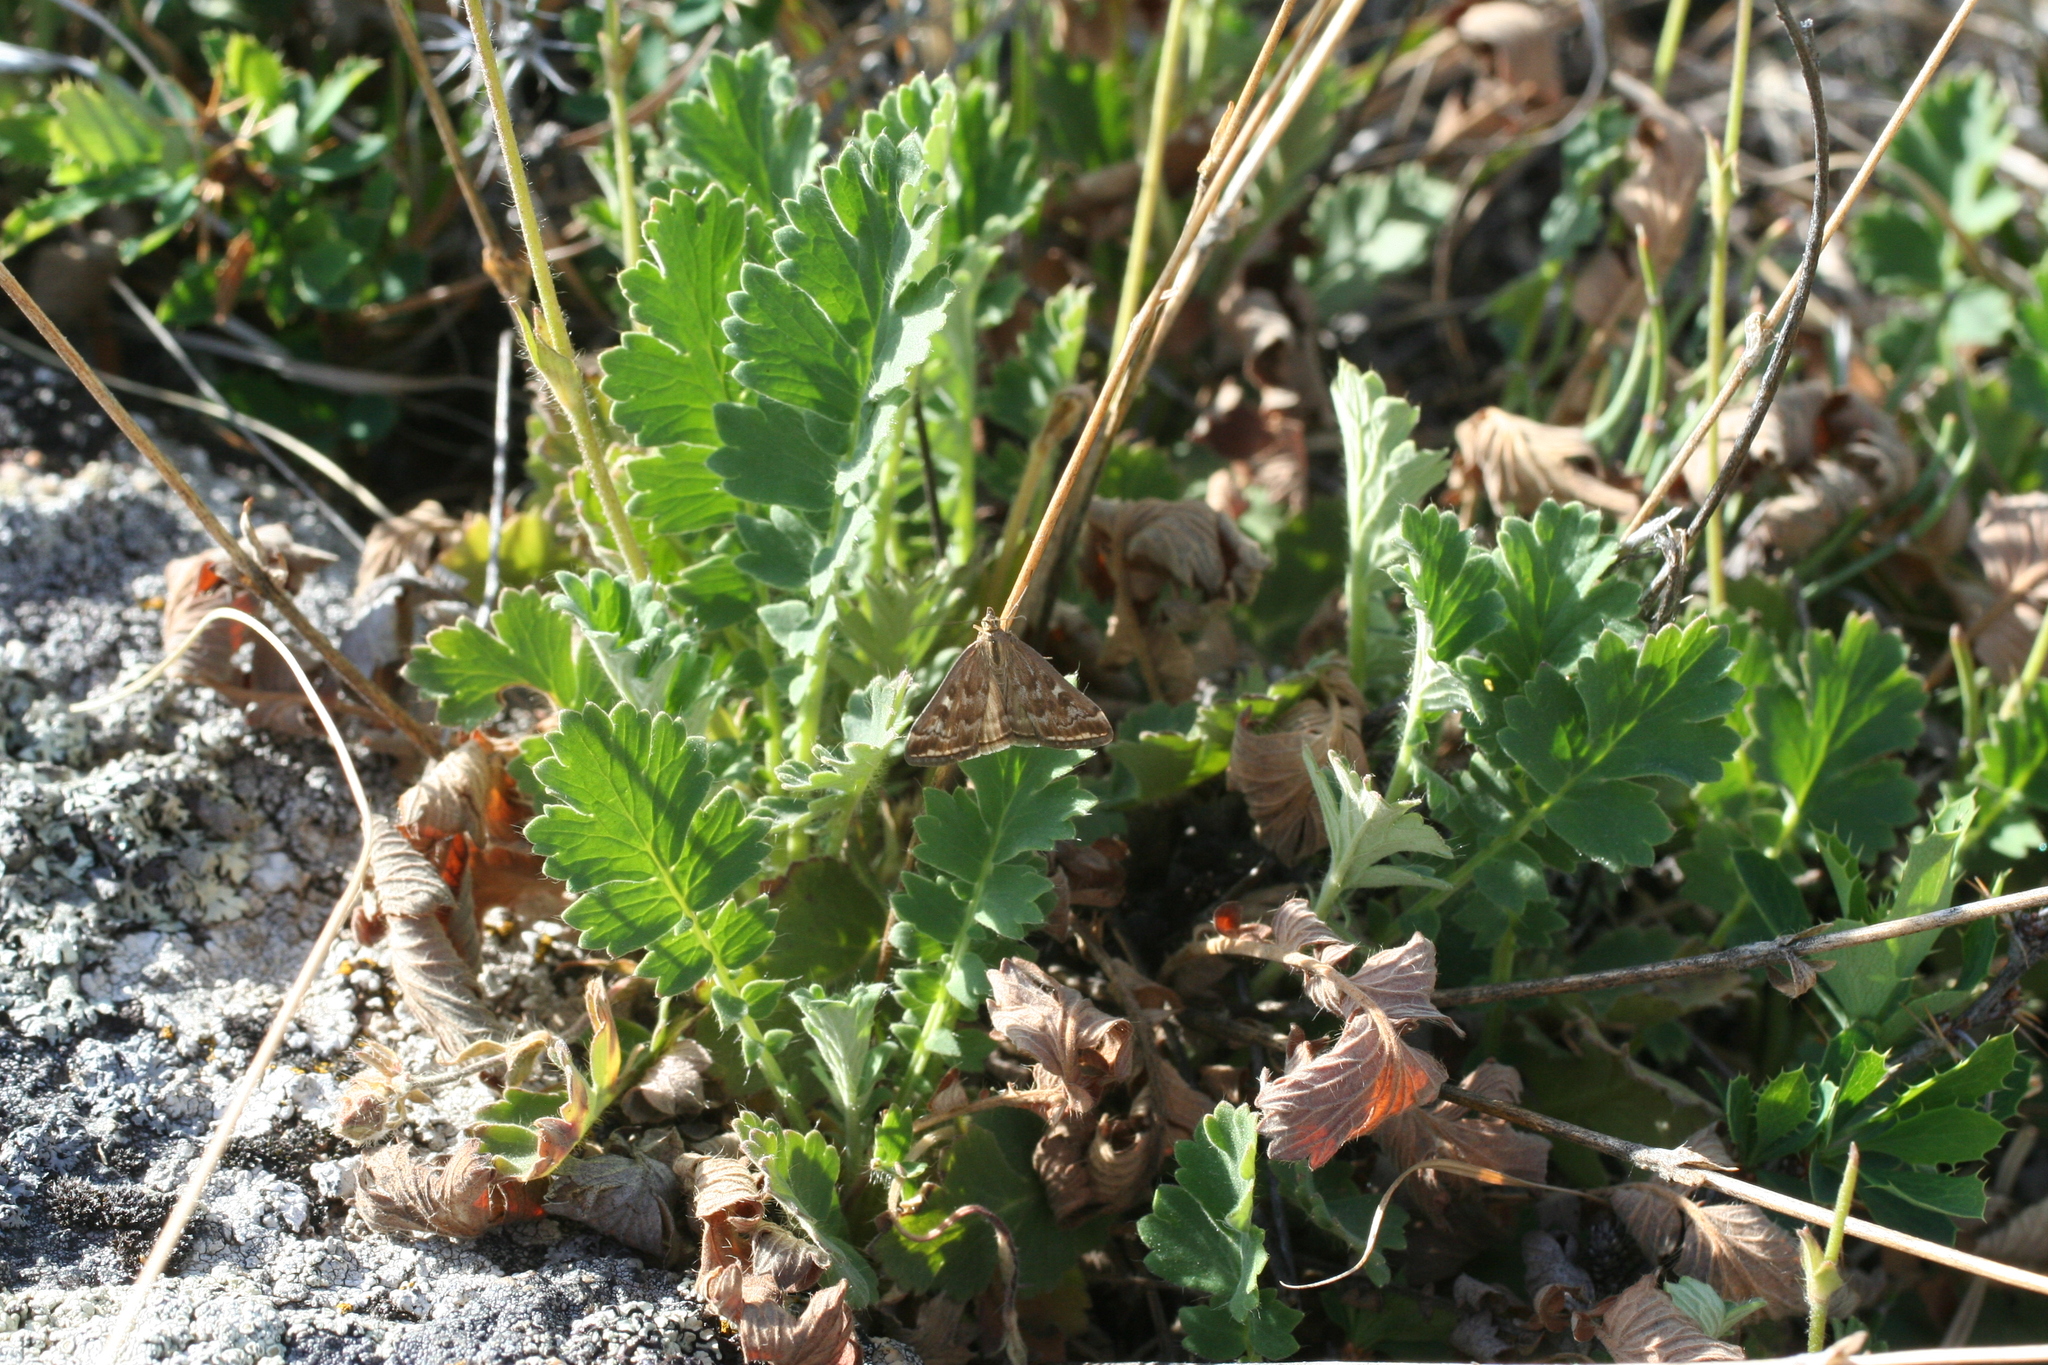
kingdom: Plantae
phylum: Tracheophyta
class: Magnoliopsida
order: Rosales
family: Rosaceae
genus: Geum
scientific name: Geum geoides
